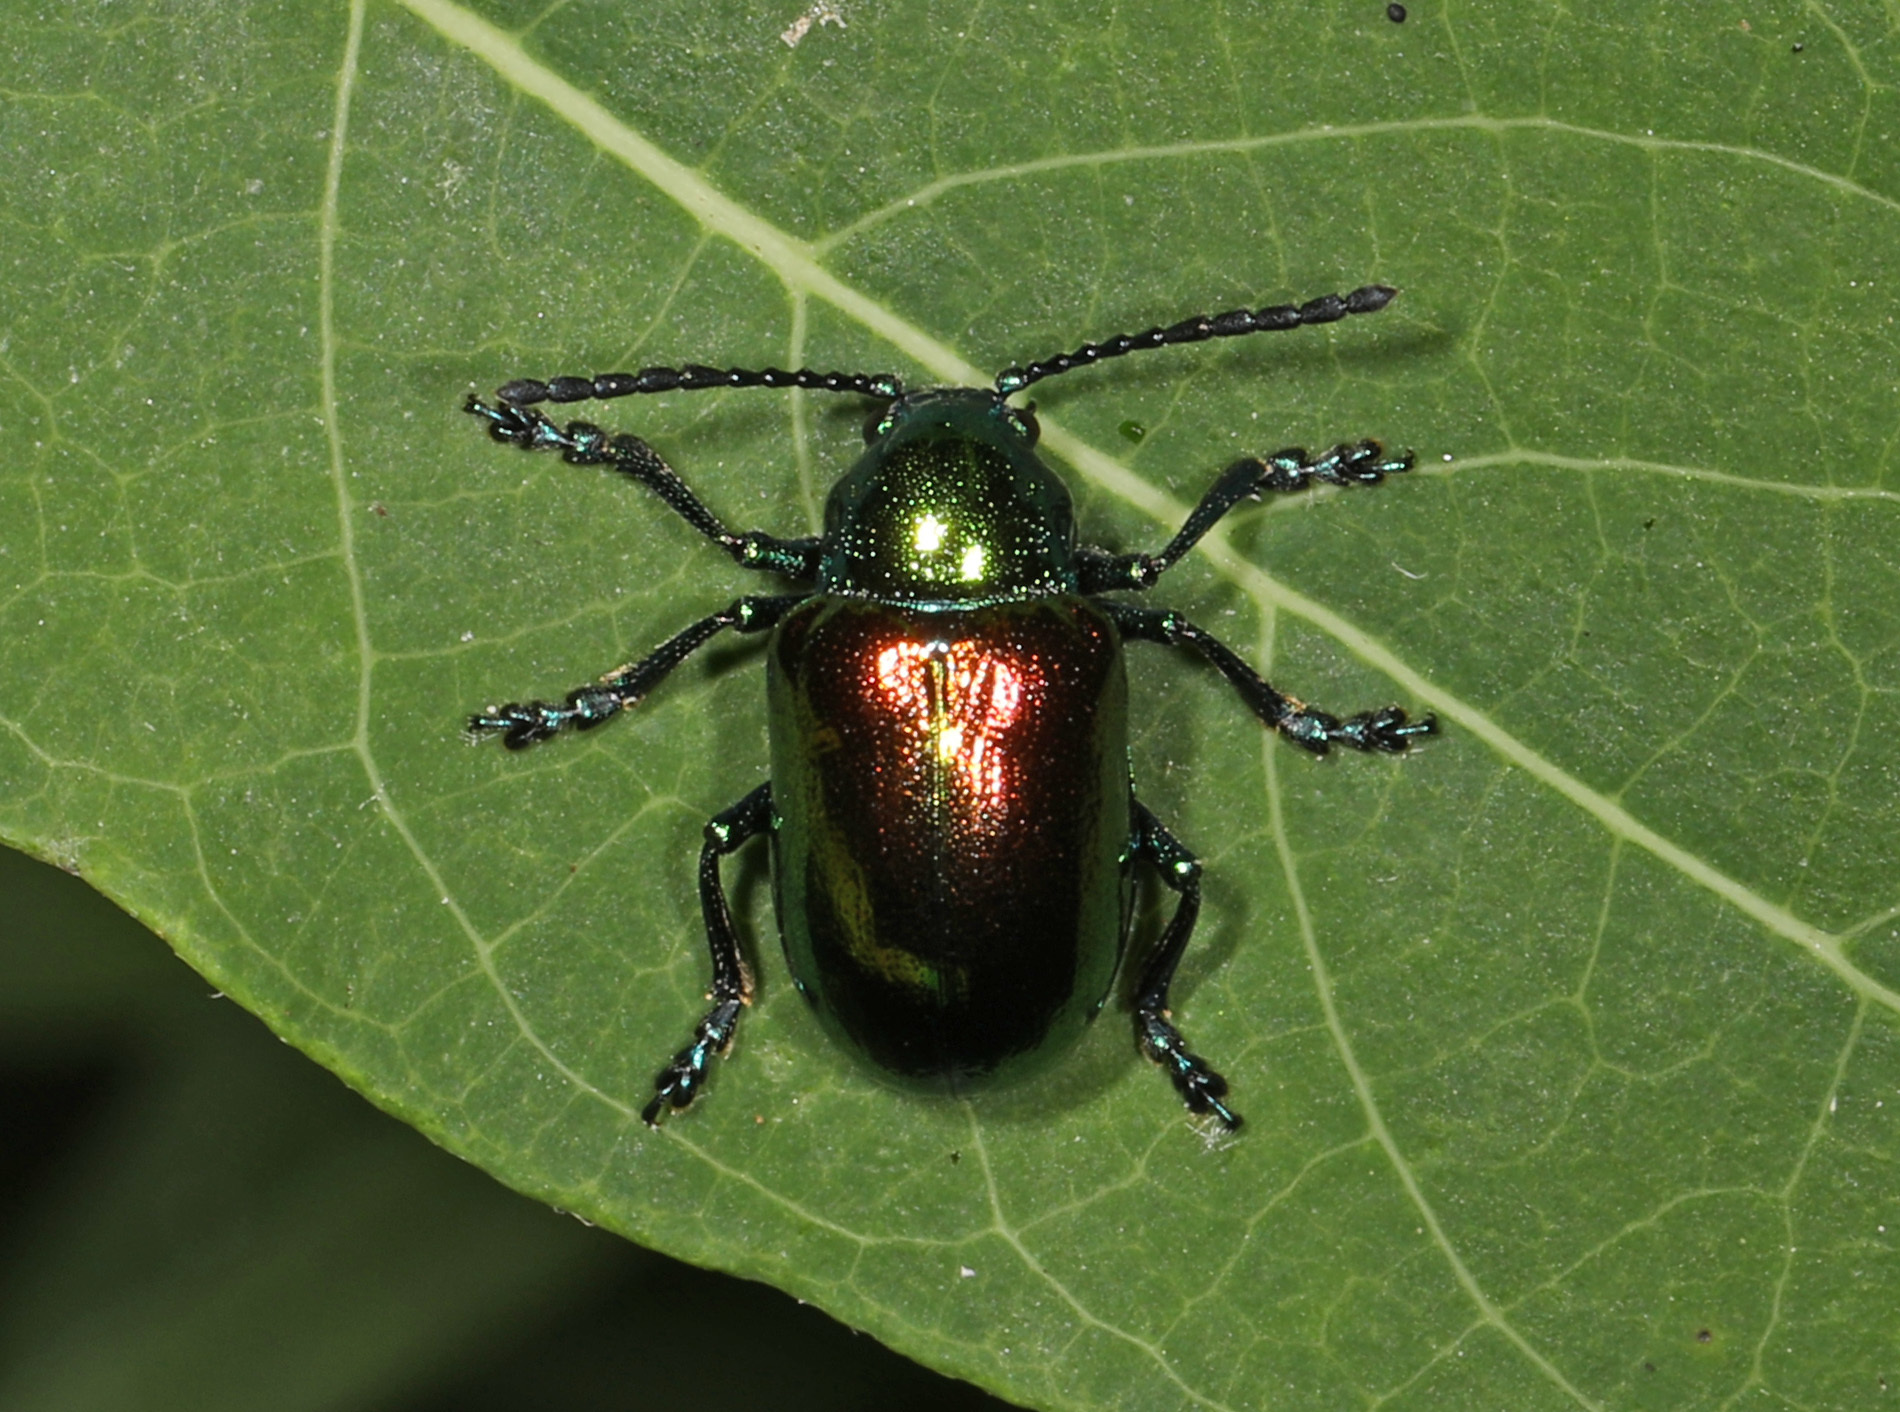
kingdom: Animalia
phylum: Arthropoda
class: Insecta
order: Coleoptera
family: Chrysomelidae
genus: Chrysochus
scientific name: Chrysochus auratus
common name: Dogbane leaf beetle
